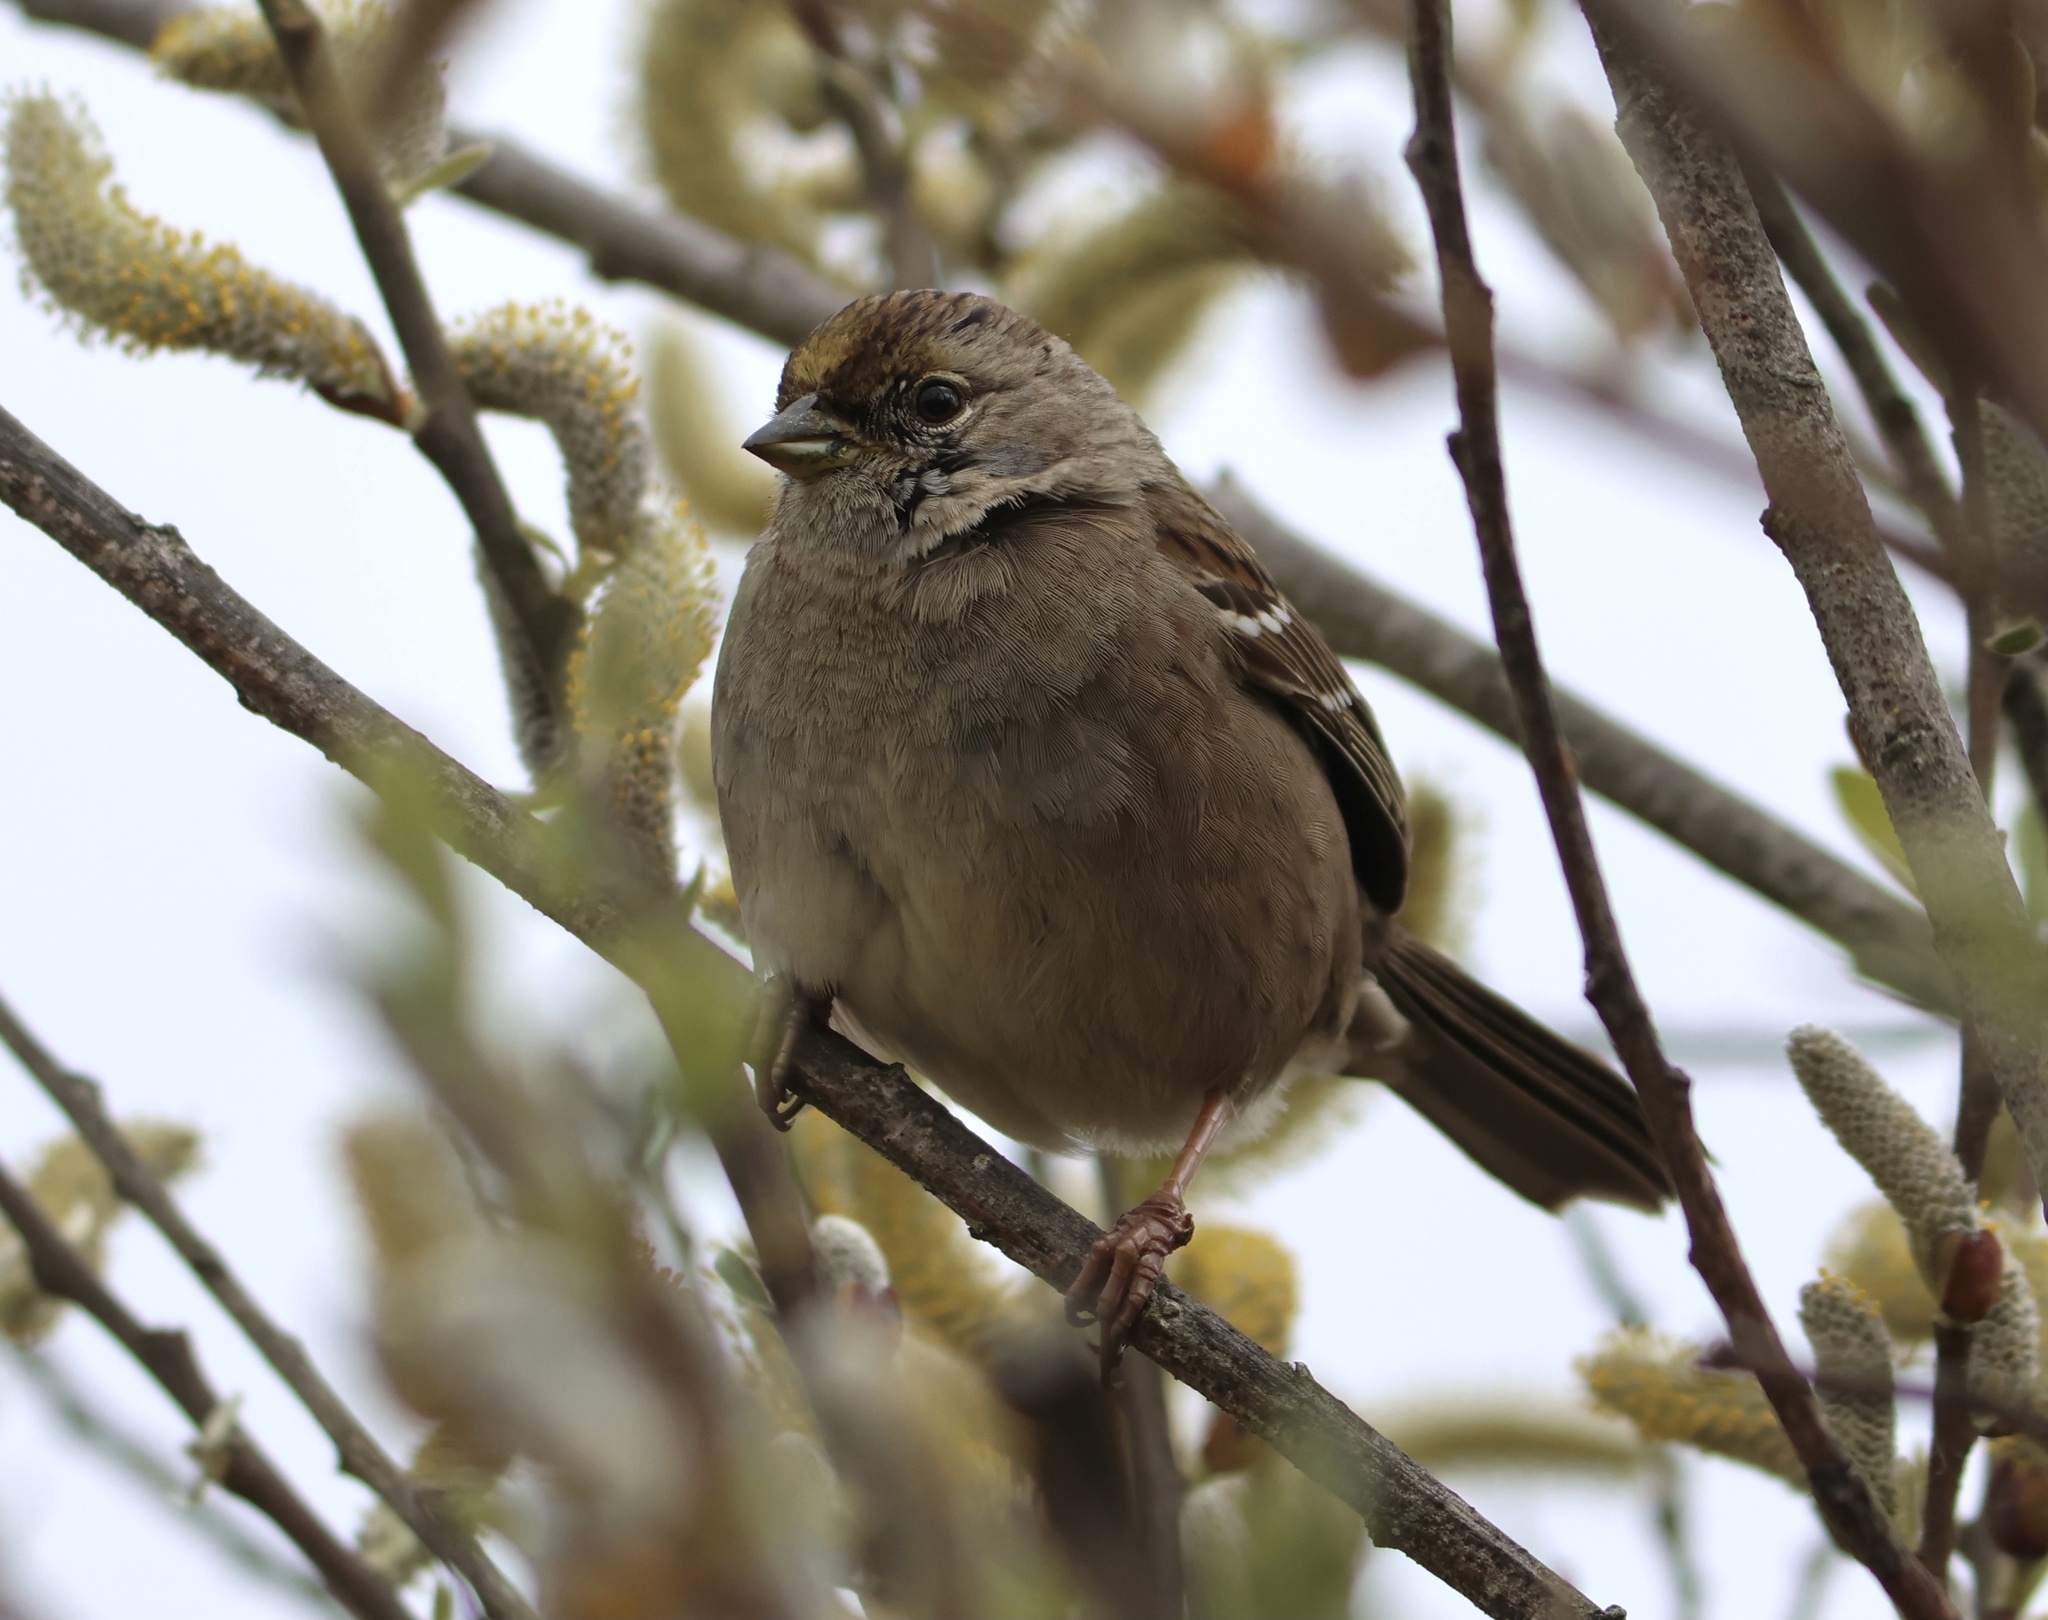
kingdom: Animalia
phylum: Chordata
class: Aves
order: Passeriformes
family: Passerellidae
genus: Zonotrichia
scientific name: Zonotrichia atricapilla
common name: Golden-crowned sparrow
